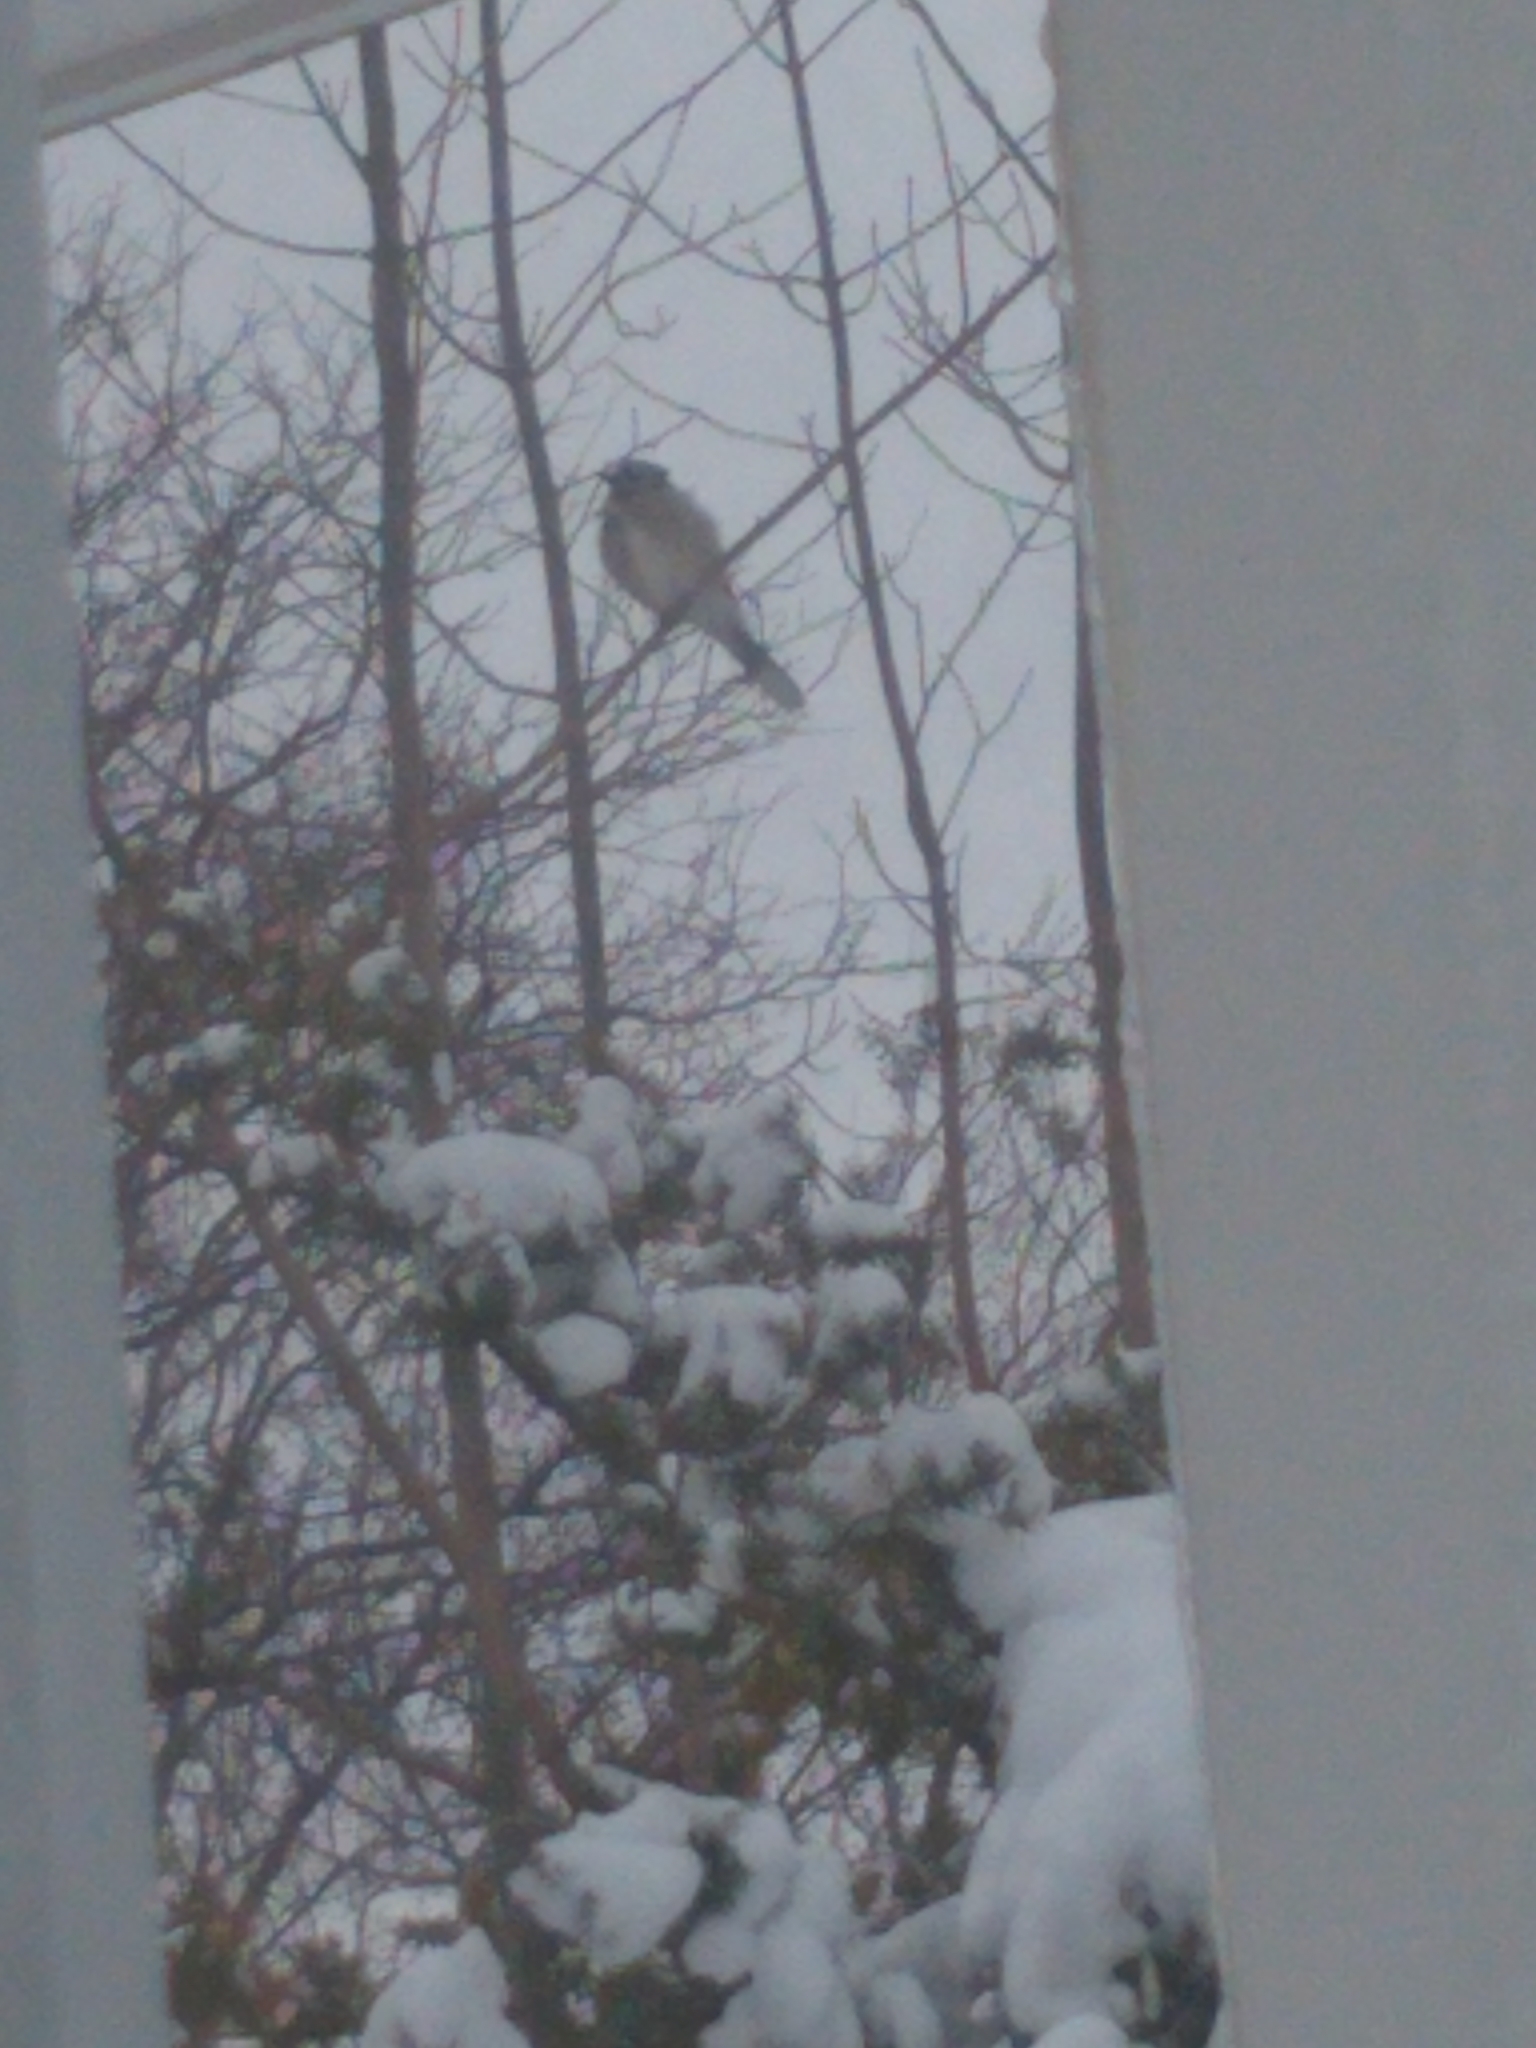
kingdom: Animalia
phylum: Chordata
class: Aves
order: Passeriformes
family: Corvidae
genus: Cyanocitta
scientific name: Cyanocitta cristata
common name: Blue jay
